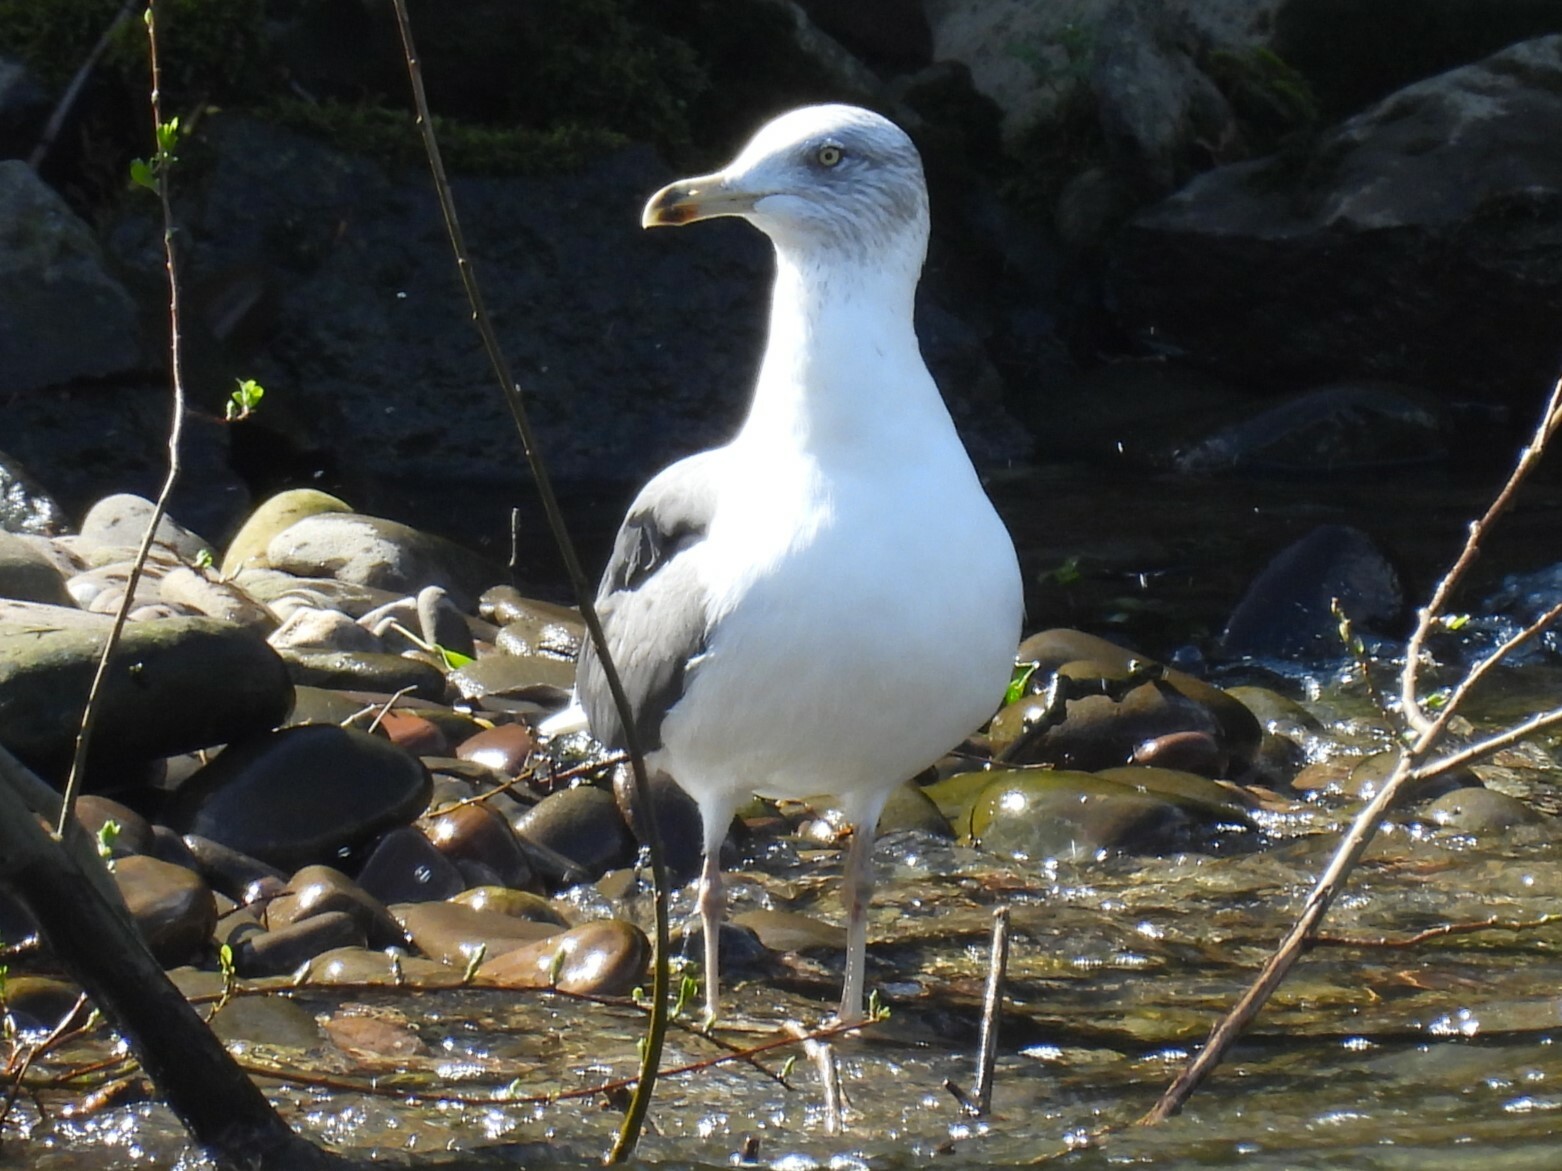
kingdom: Animalia
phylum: Chordata
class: Aves
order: Charadriiformes
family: Laridae
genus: Larus
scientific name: Larus fuscus
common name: Lesser black-backed gull
